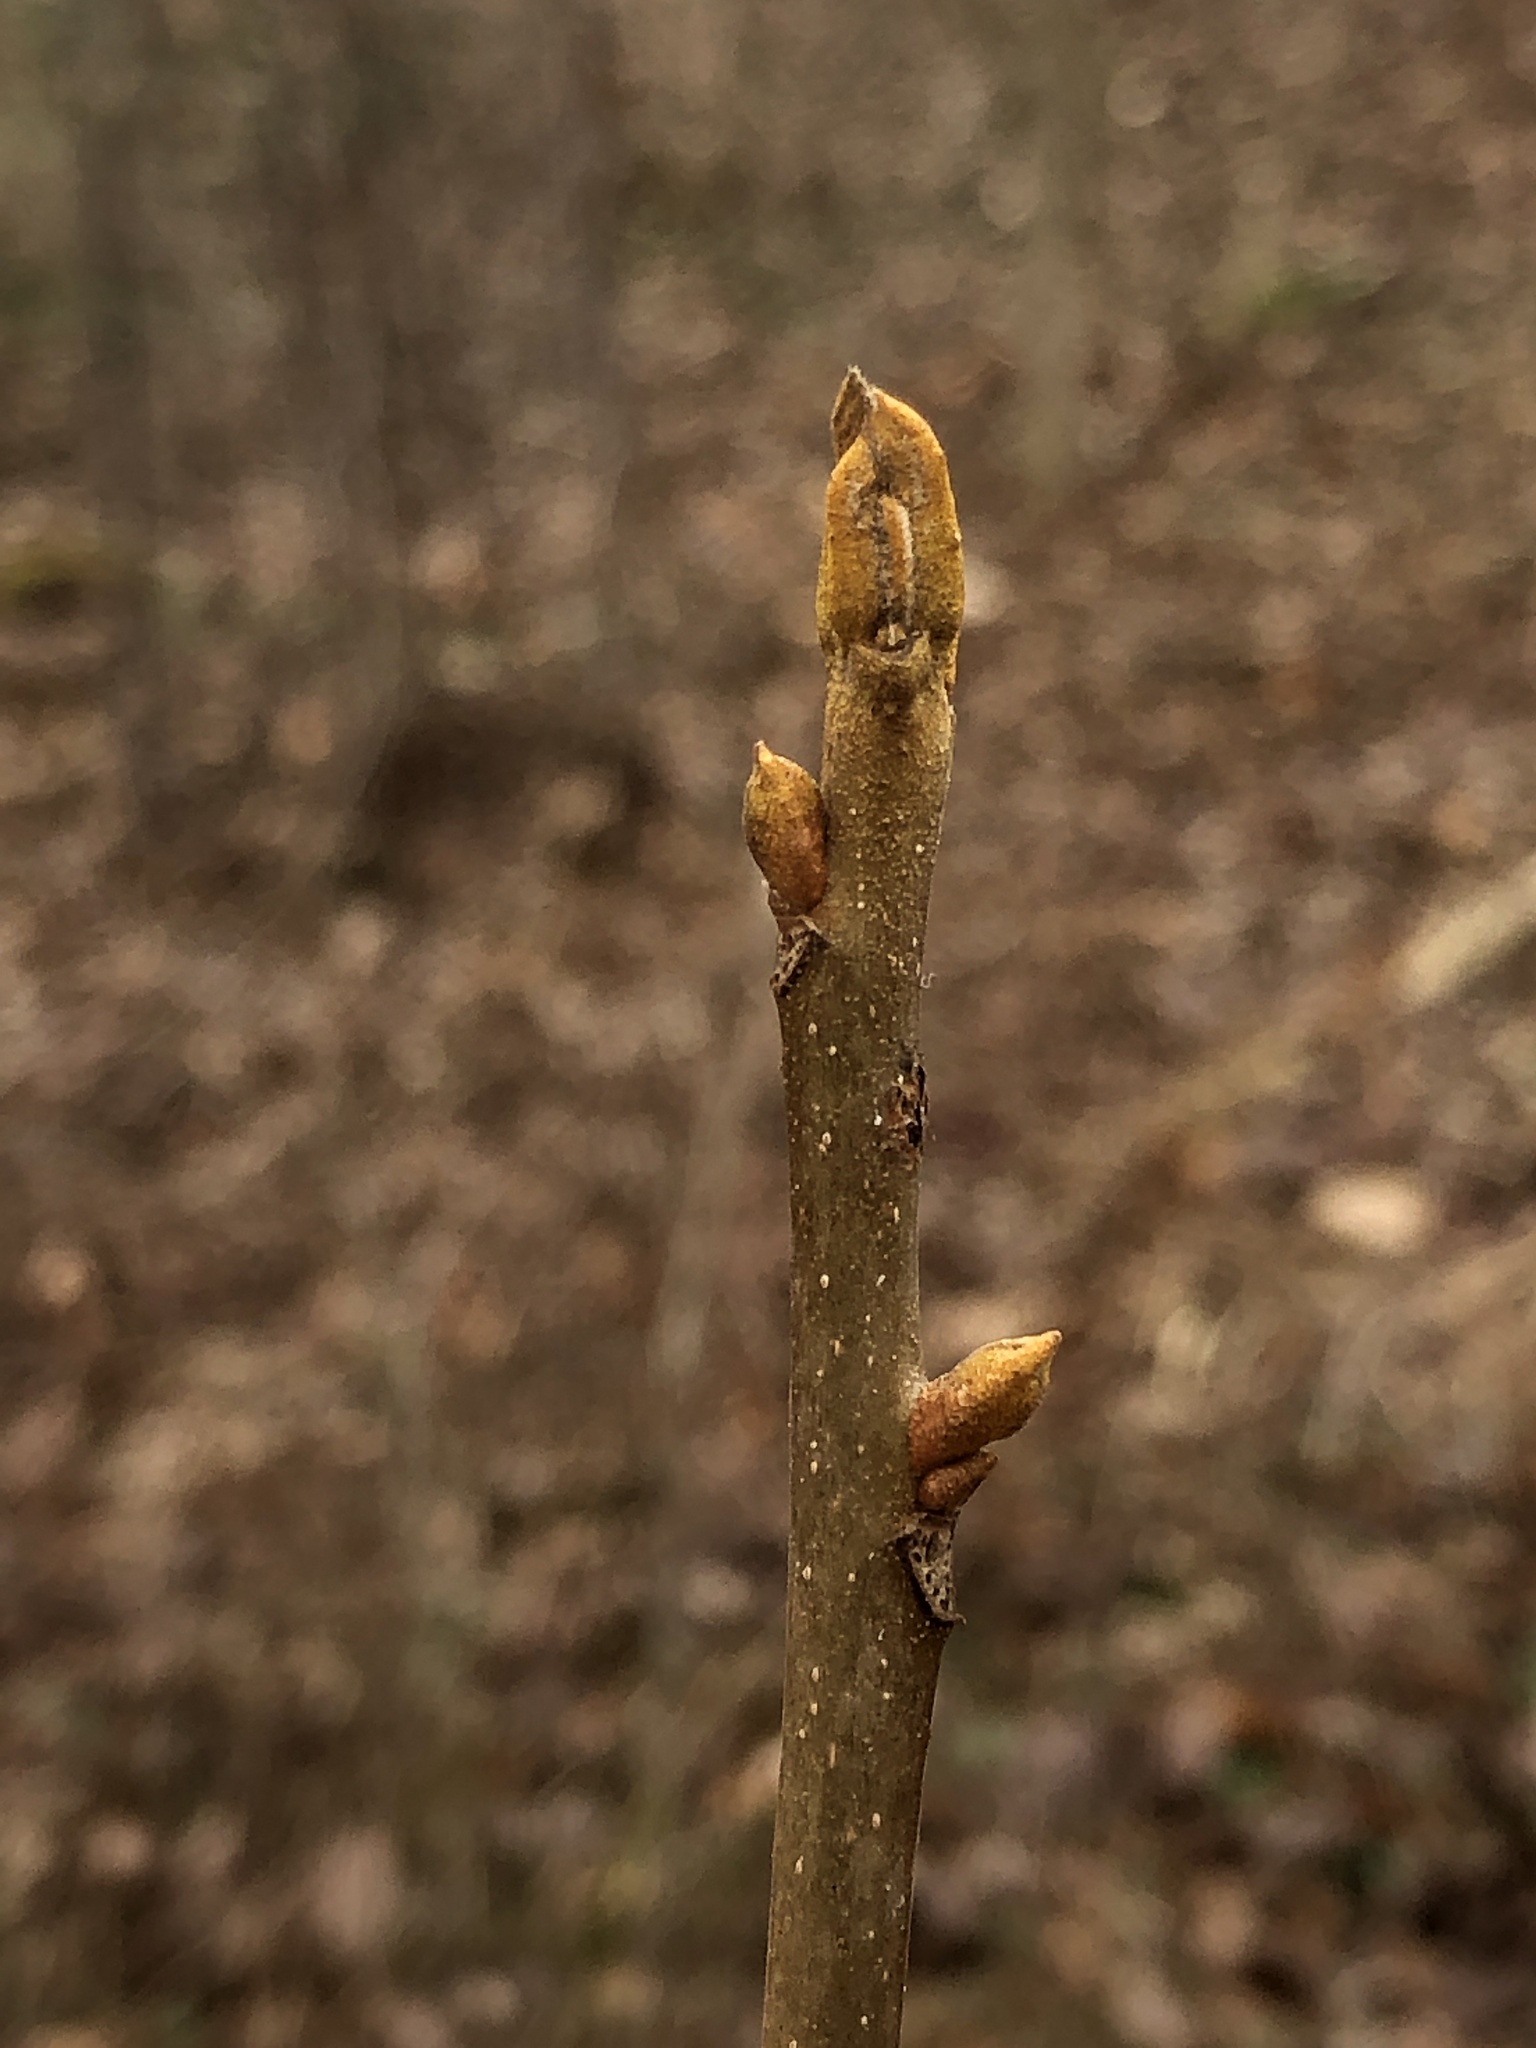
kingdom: Plantae
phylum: Tracheophyta
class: Magnoliopsida
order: Fagales
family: Juglandaceae
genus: Carya
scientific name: Carya cordiformis
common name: Bitternut hickory
